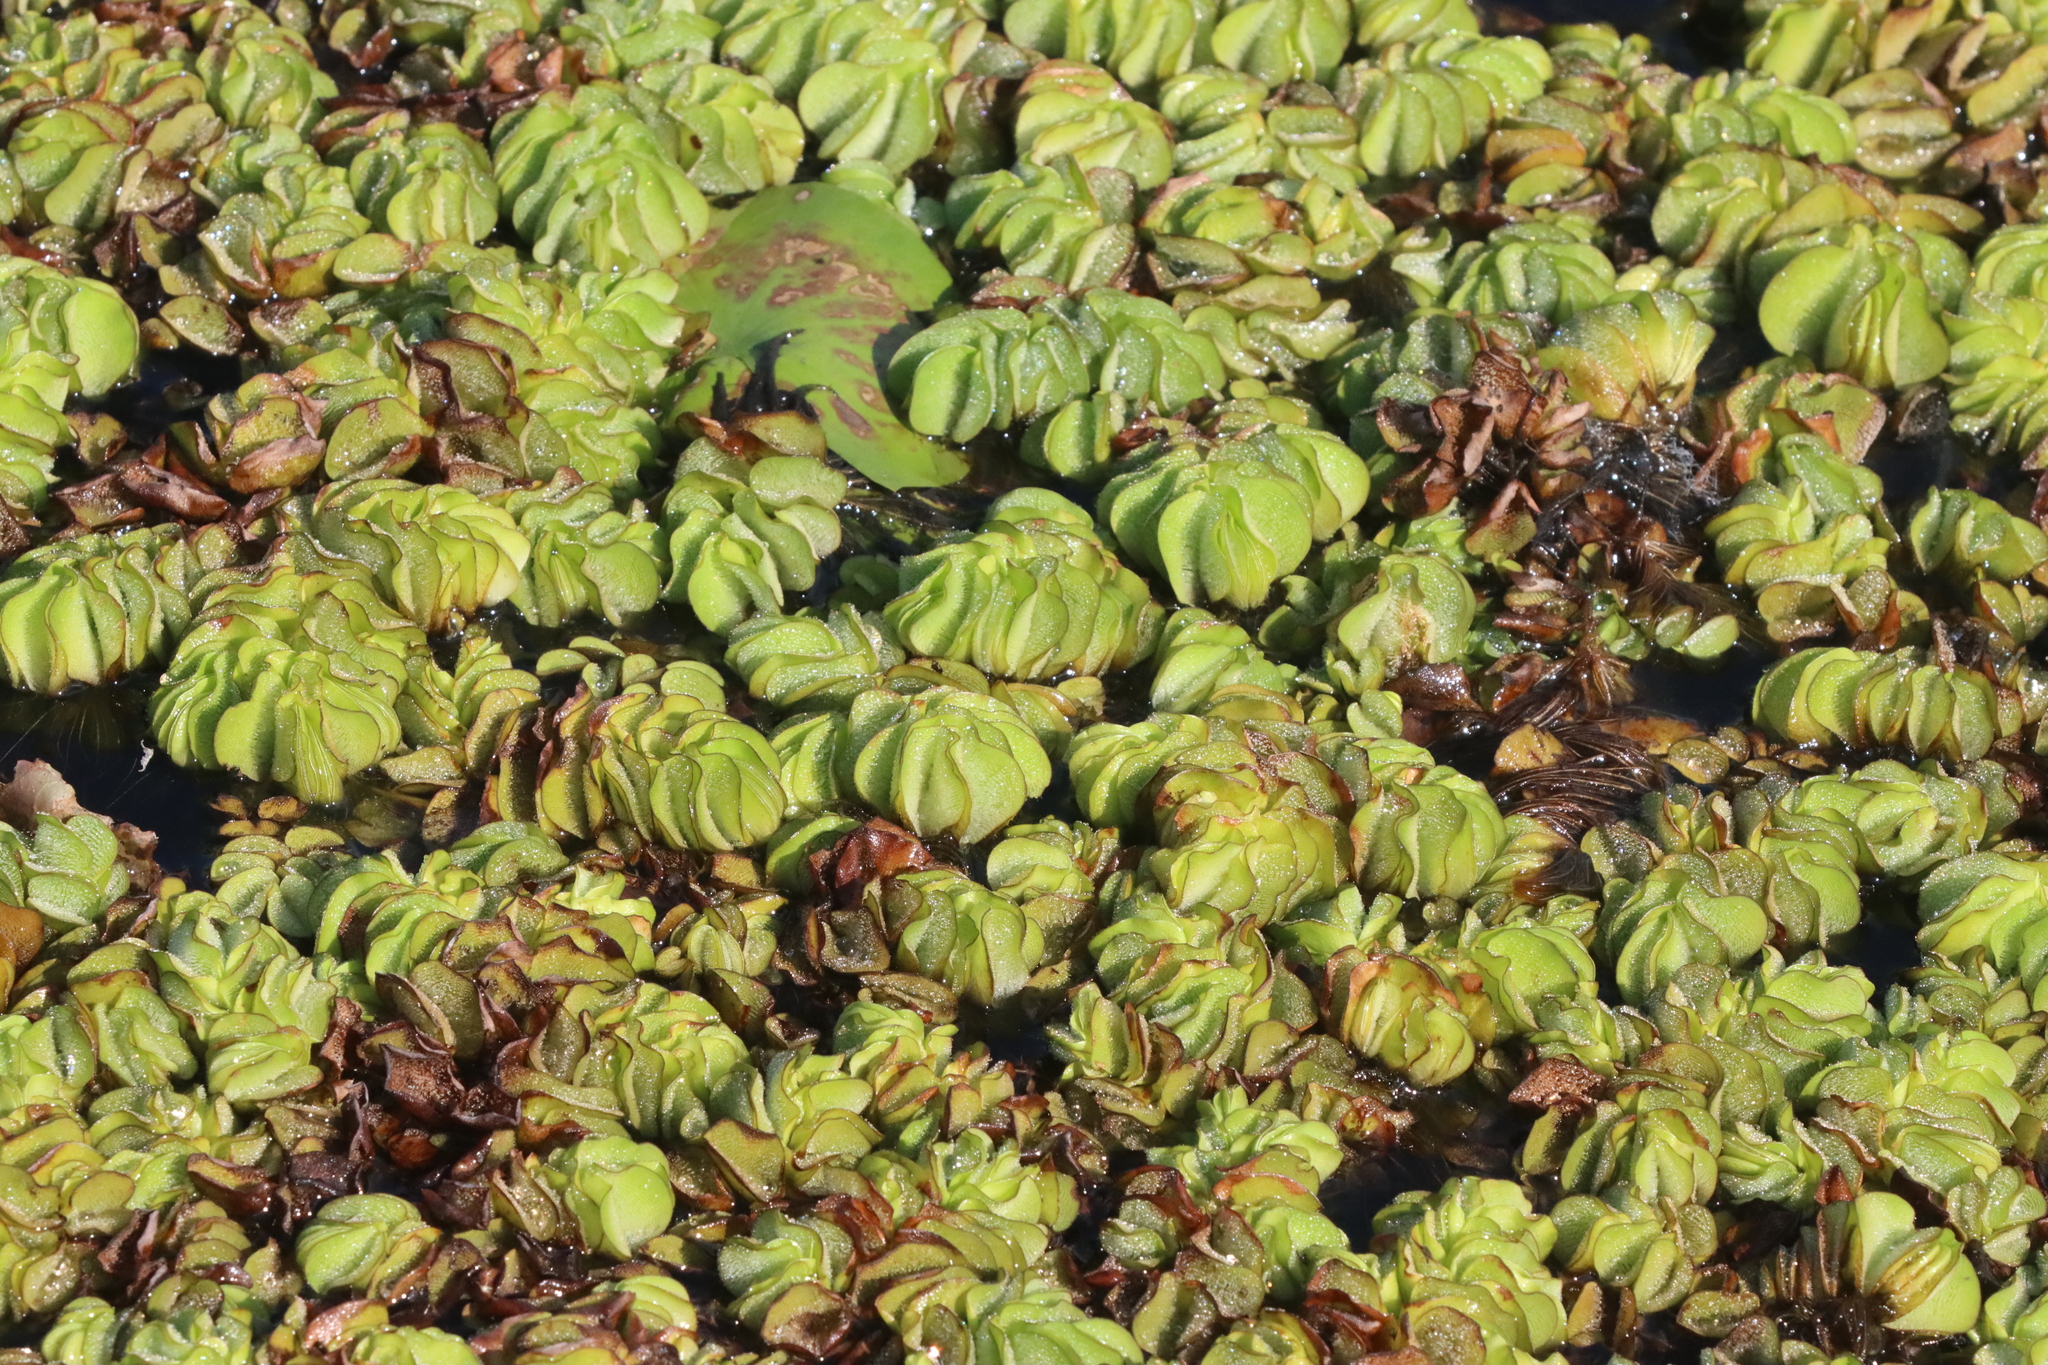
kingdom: Plantae
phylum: Tracheophyta
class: Polypodiopsida
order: Salviniales
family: Salviniaceae
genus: Salvinia
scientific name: Salvinia molesta
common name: Kariba weed
